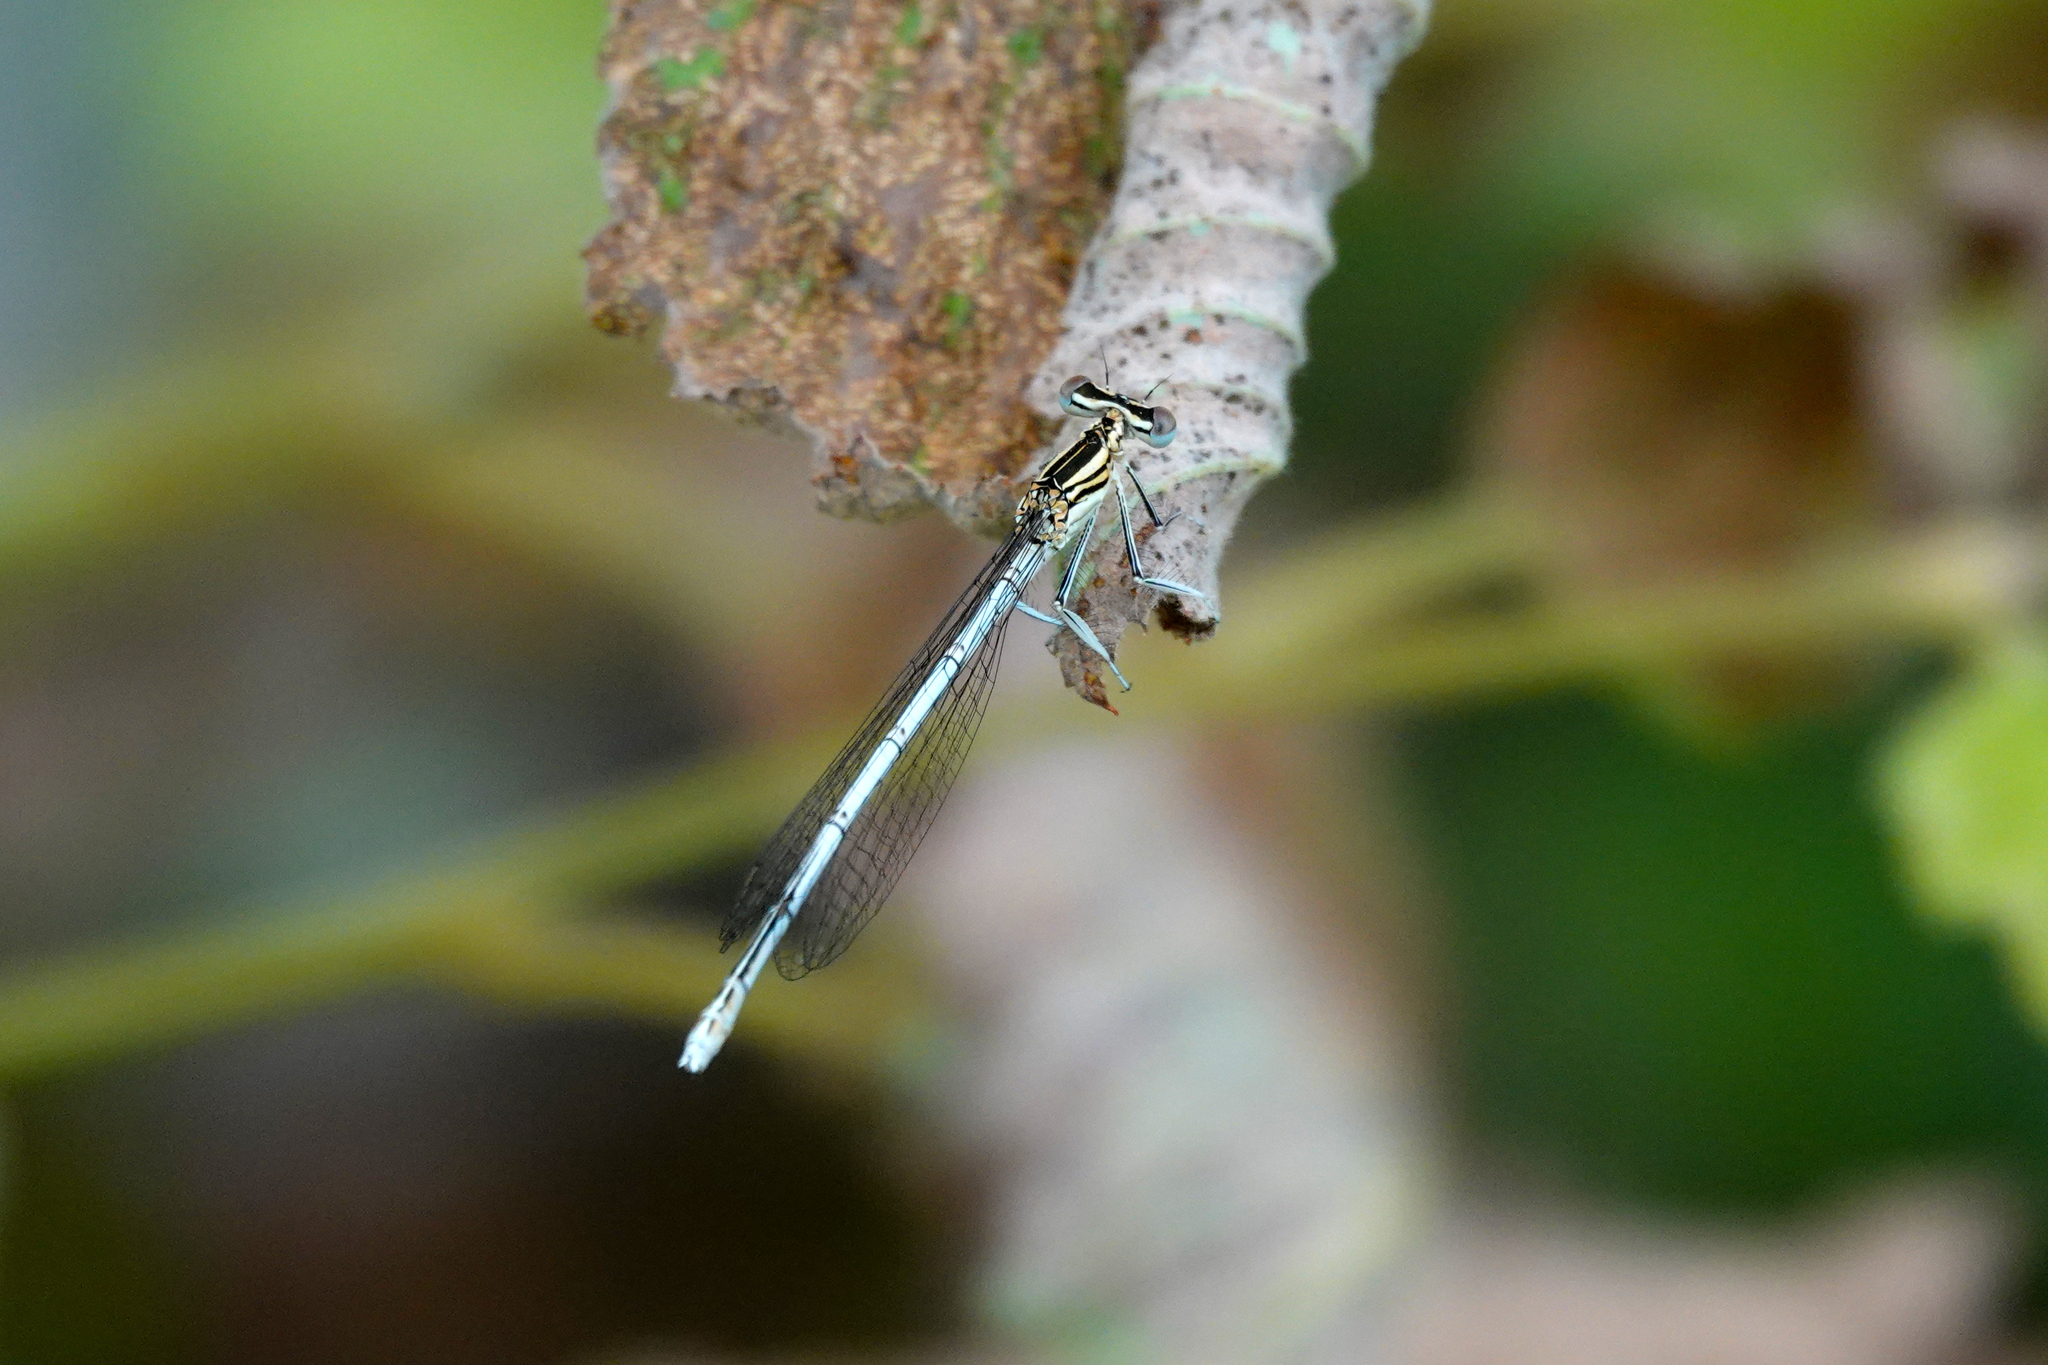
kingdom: Animalia
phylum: Arthropoda
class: Insecta
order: Odonata
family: Platycnemididae
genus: Platycnemis
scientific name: Platycnemis pennipes
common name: White-legged damselfly
